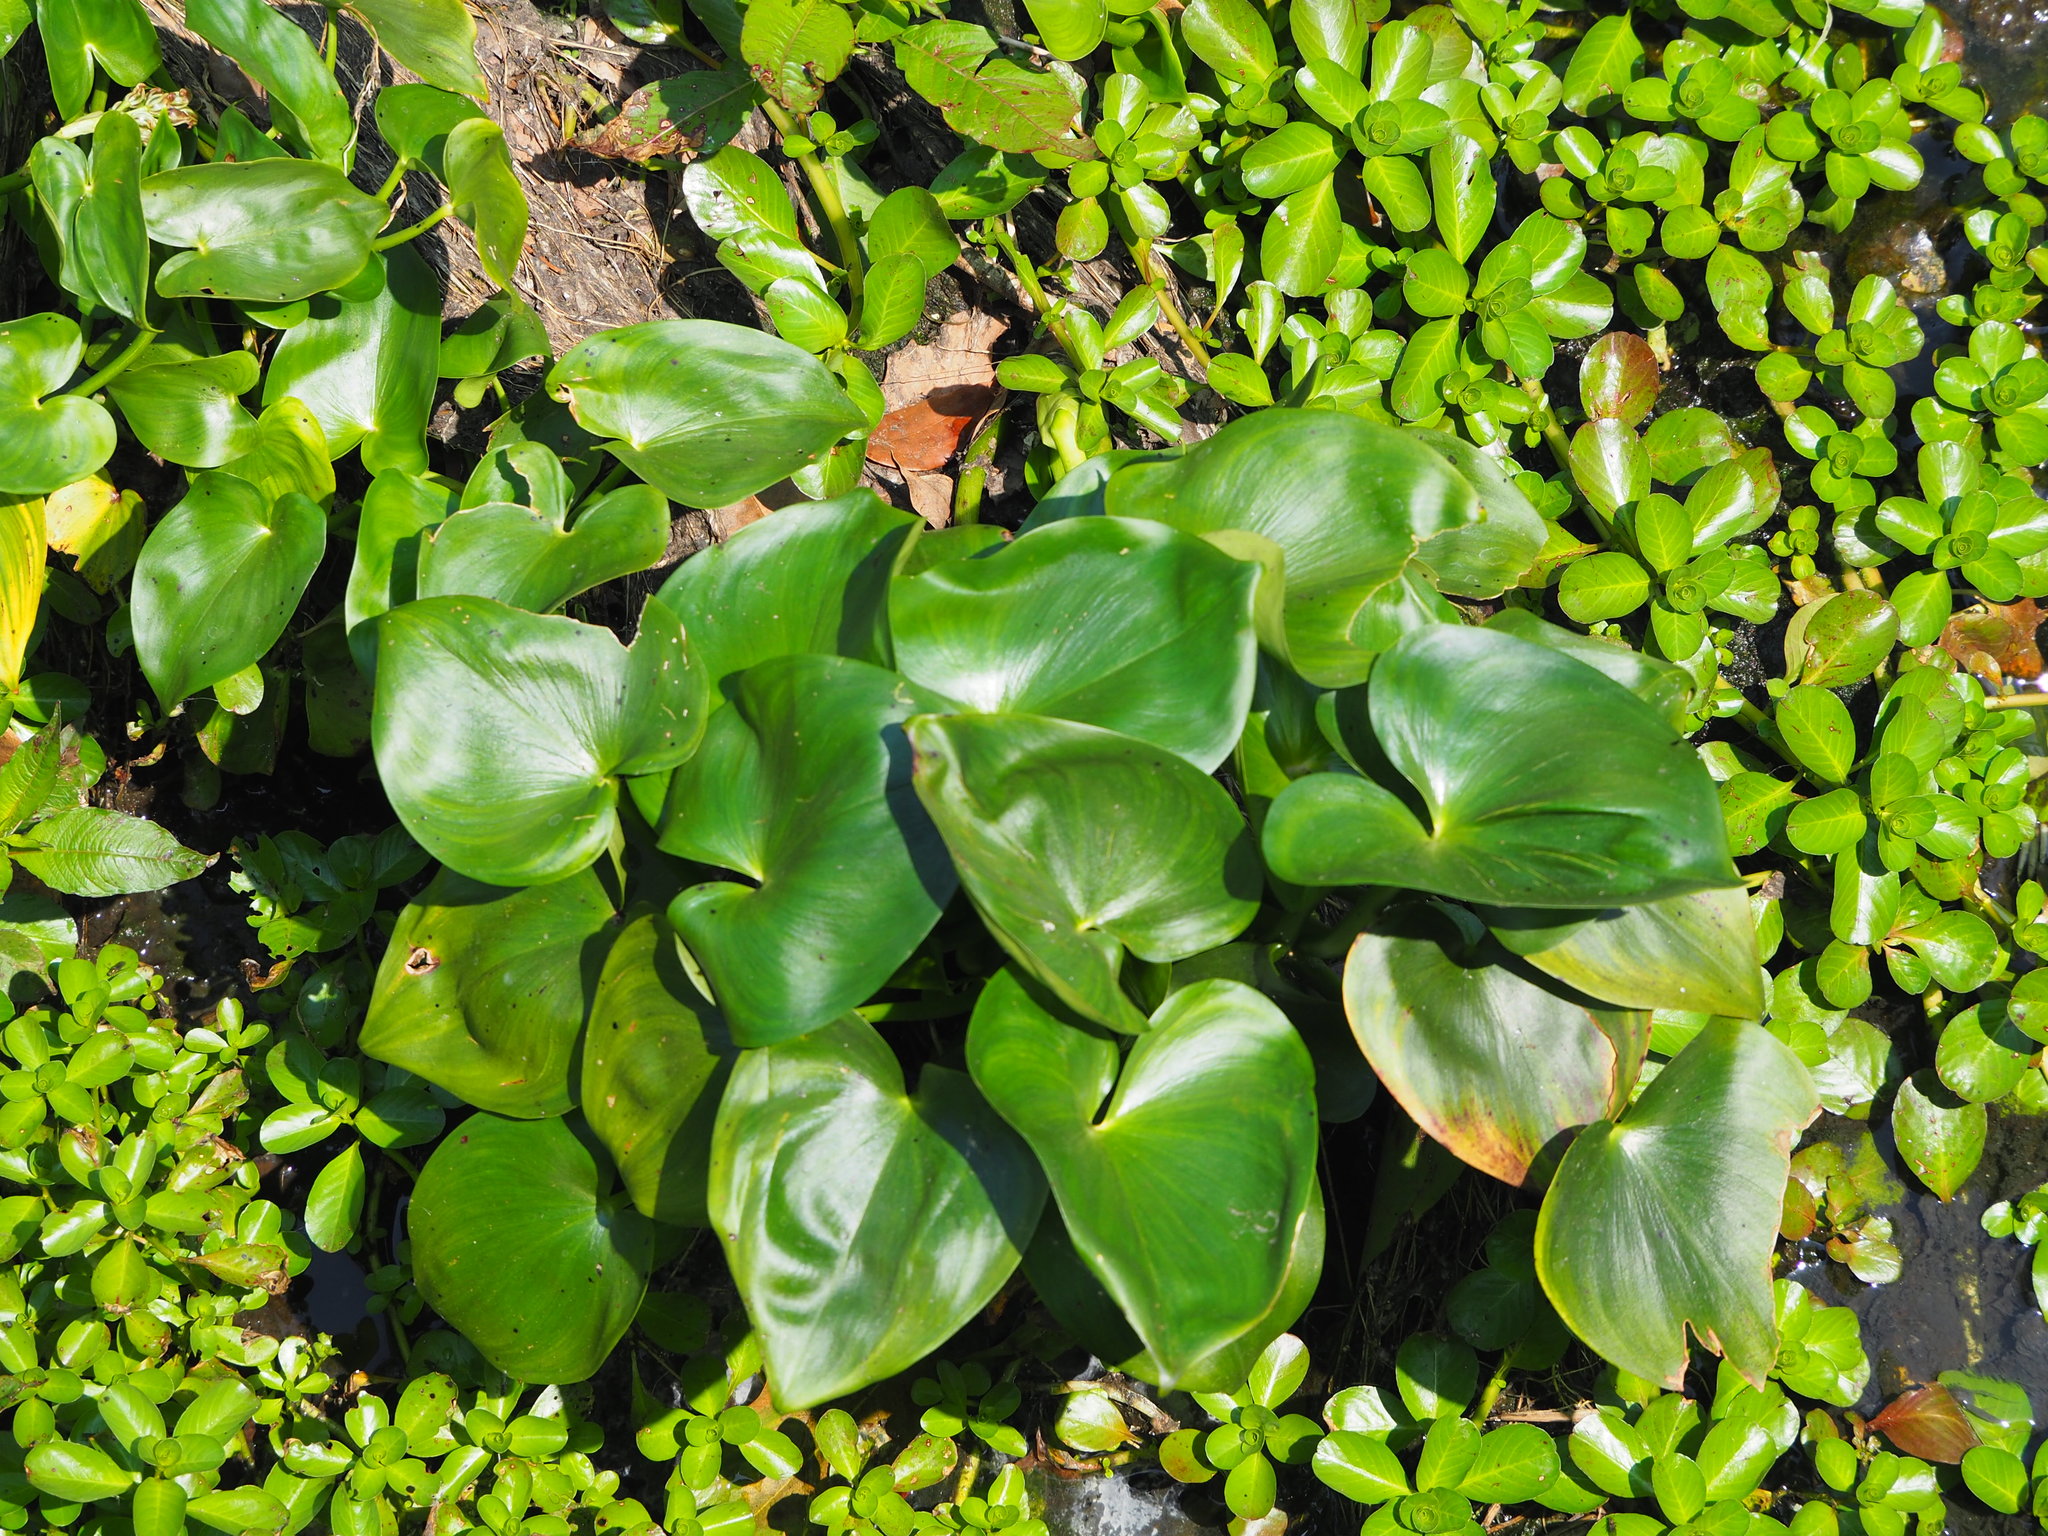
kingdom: Plantae
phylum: Tracheophyta
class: Liliopsida
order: Commelinales
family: Pontederiaceae
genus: Pontederia
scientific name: Pontederia vaginalis
